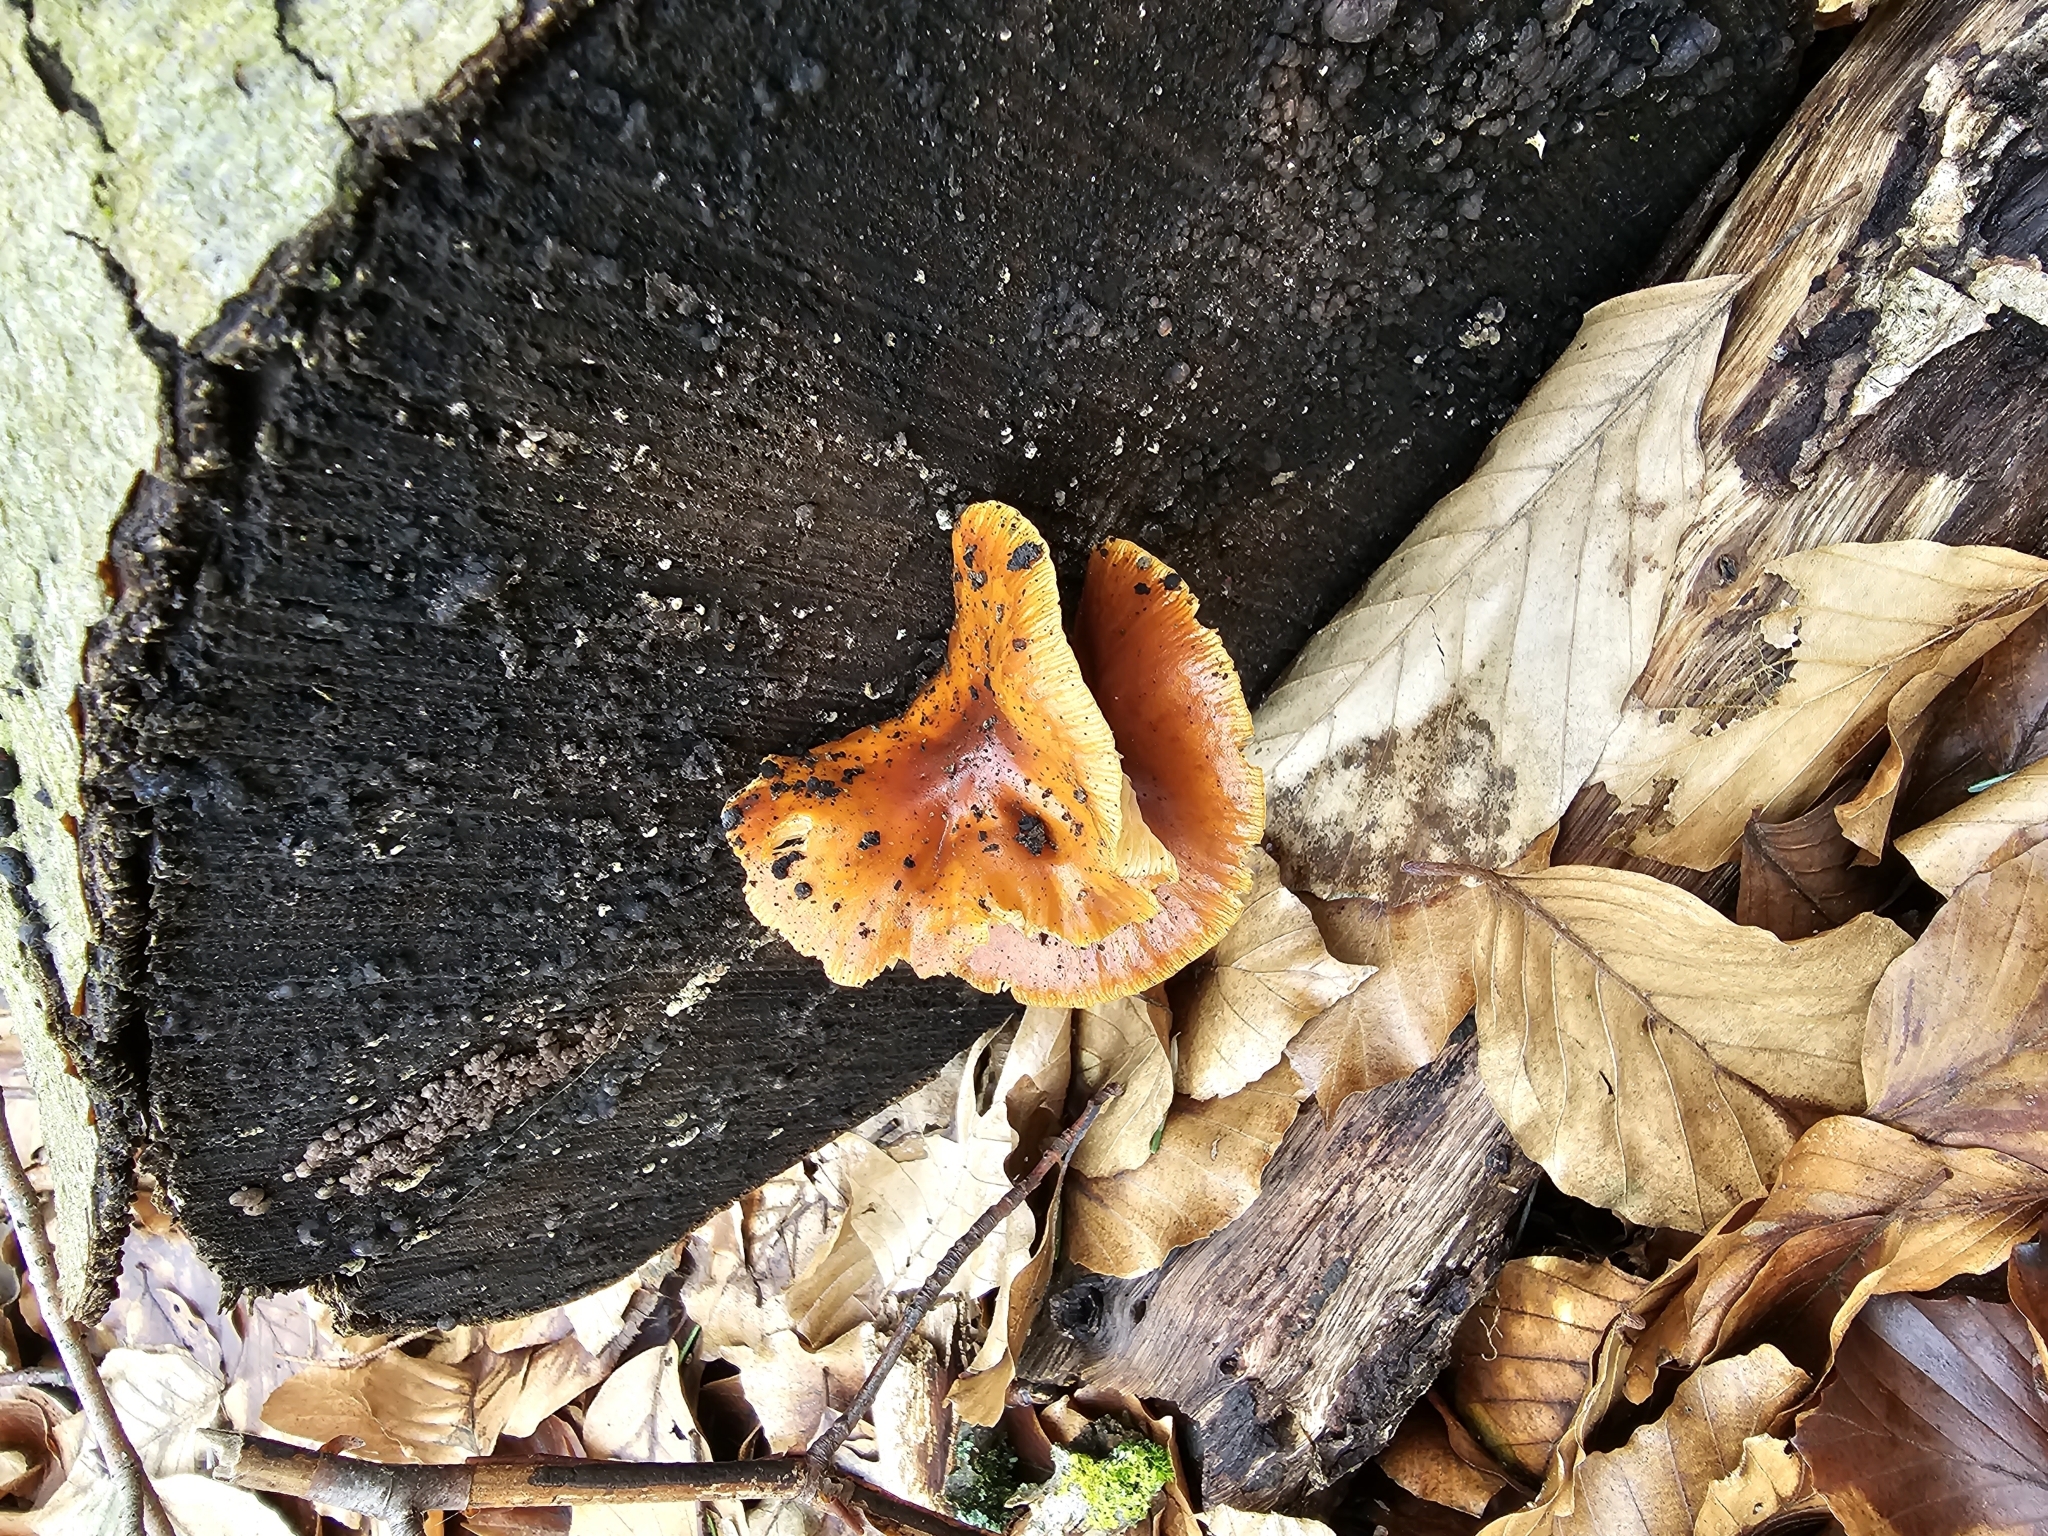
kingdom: Fungi
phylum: Basidiomycota
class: Agaricomycetes
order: Agaricales
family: Physalacriaceae
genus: Flammulina
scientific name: Flammulina
